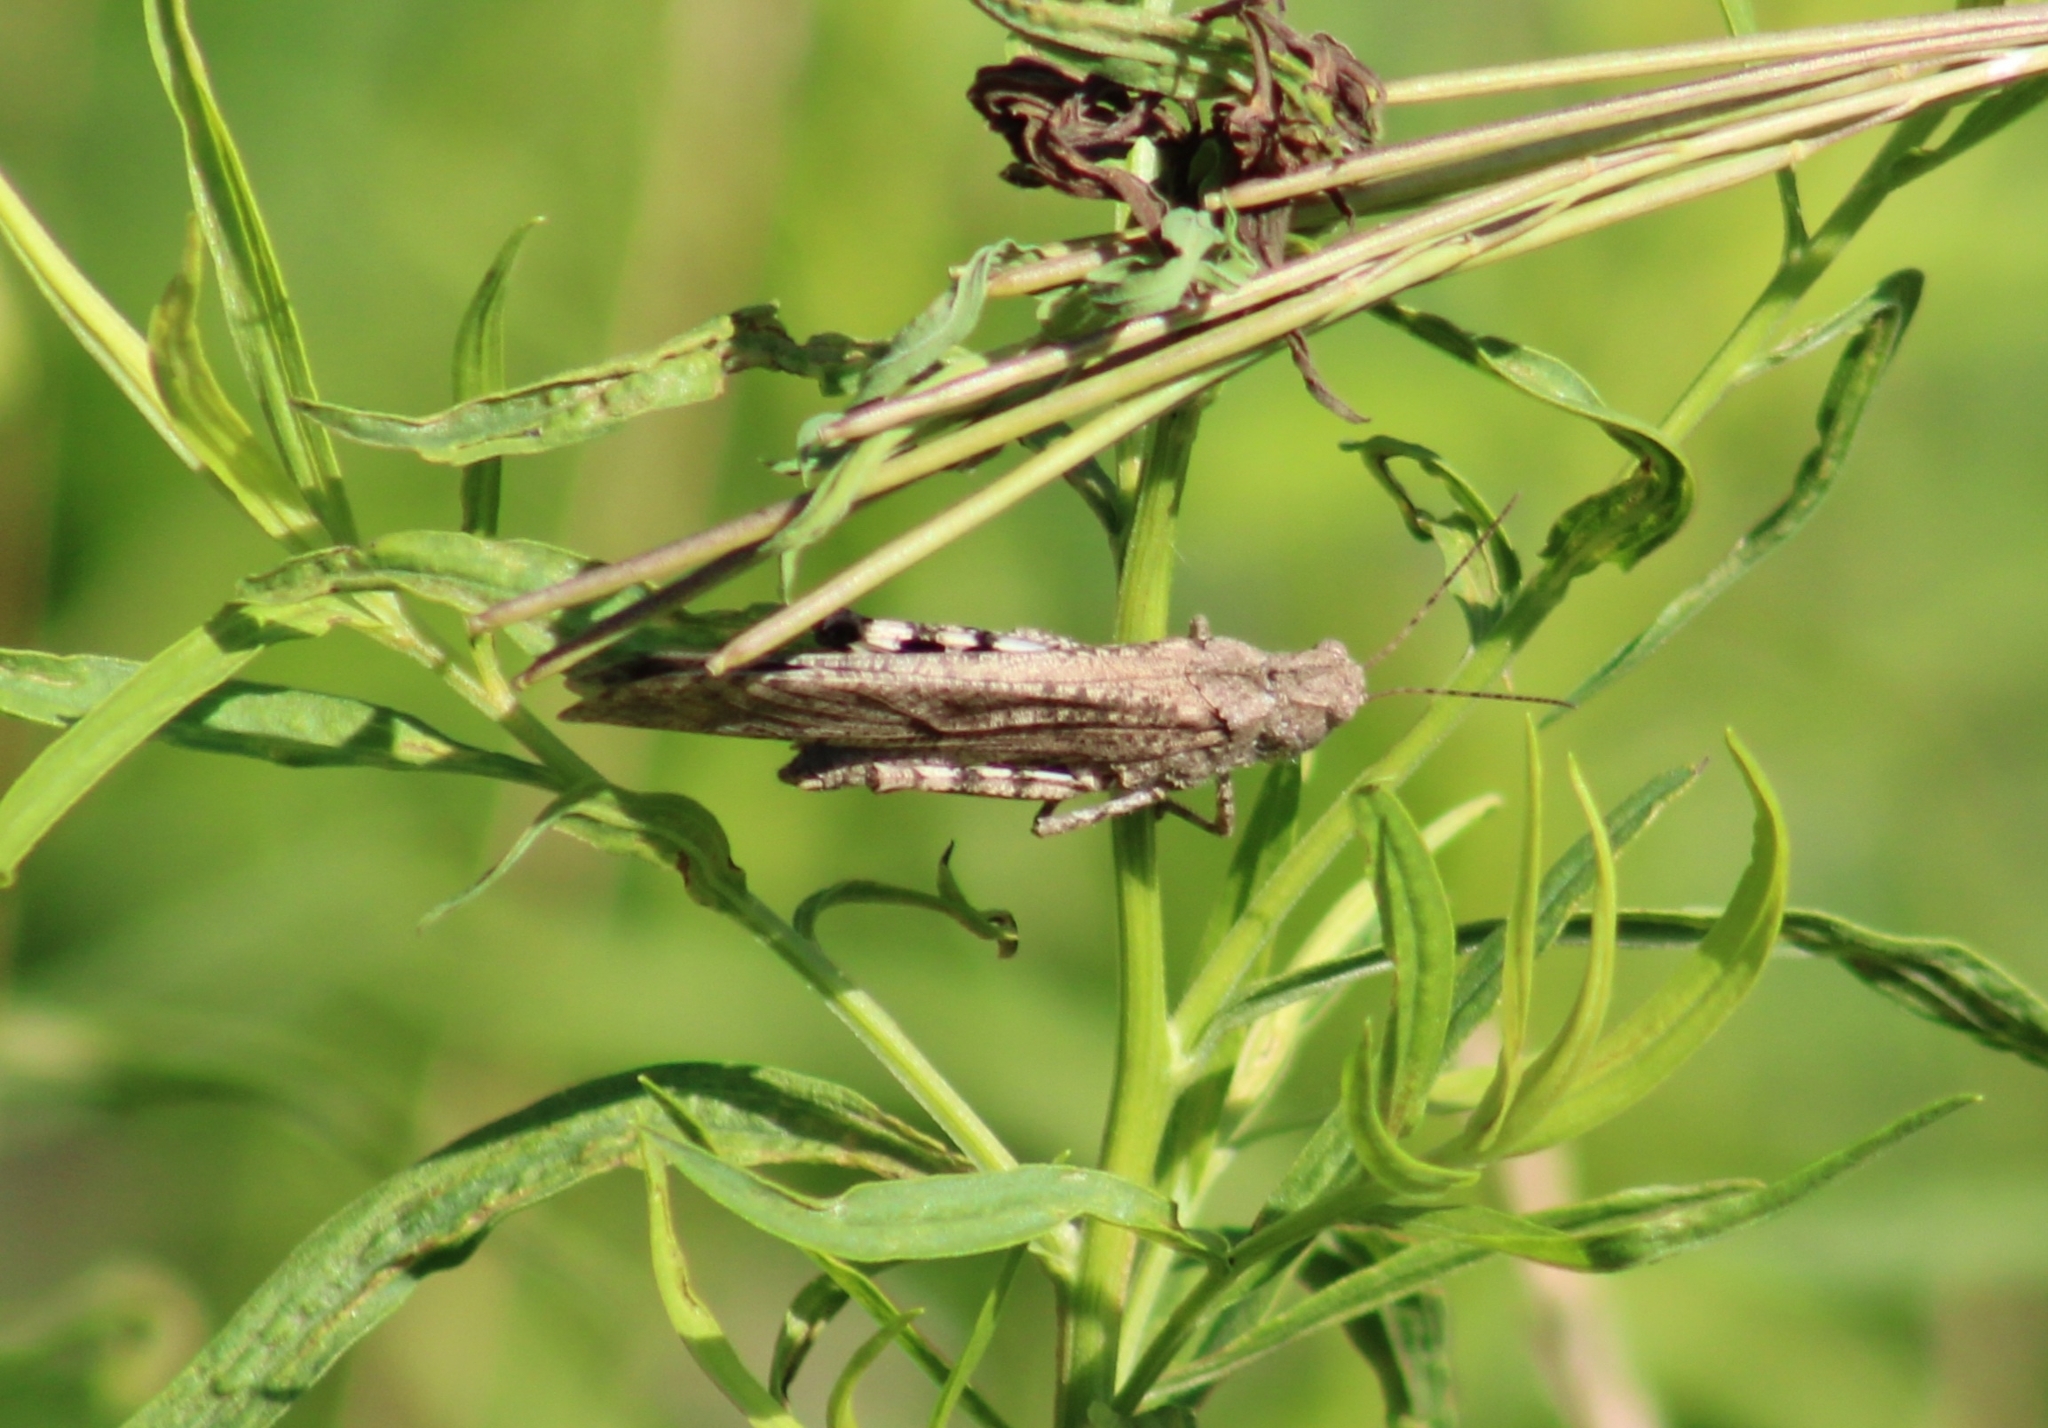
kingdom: Animalia
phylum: Arthropoda
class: Insecta
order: Orthoptera
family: Acrididae
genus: Dissosteira
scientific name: Dissosteira carolina
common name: Carolina grasshopper
